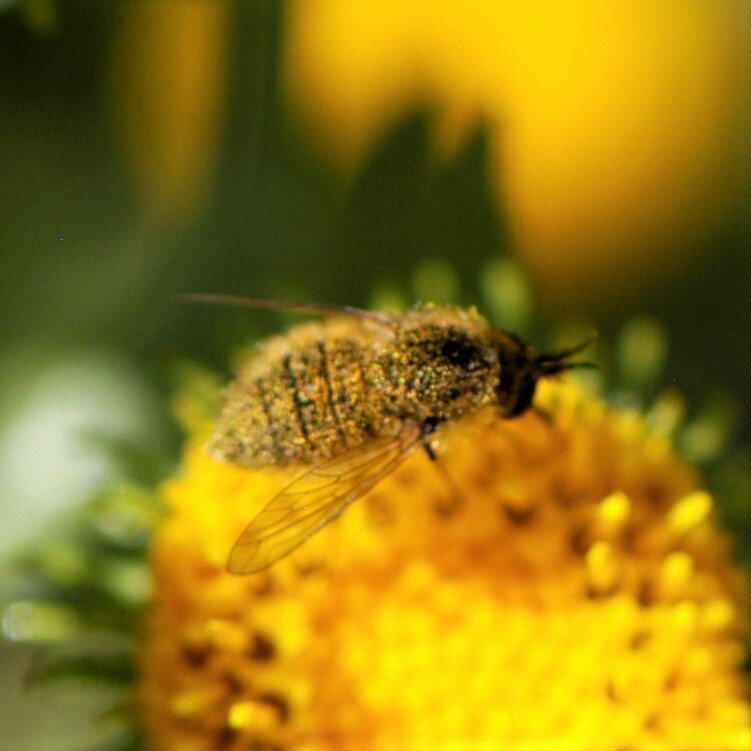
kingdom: Animalia
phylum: Arthropoda
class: Insecta
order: Diptera
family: Bombyliidae
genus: Sparnopolius
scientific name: Sparnopolius
